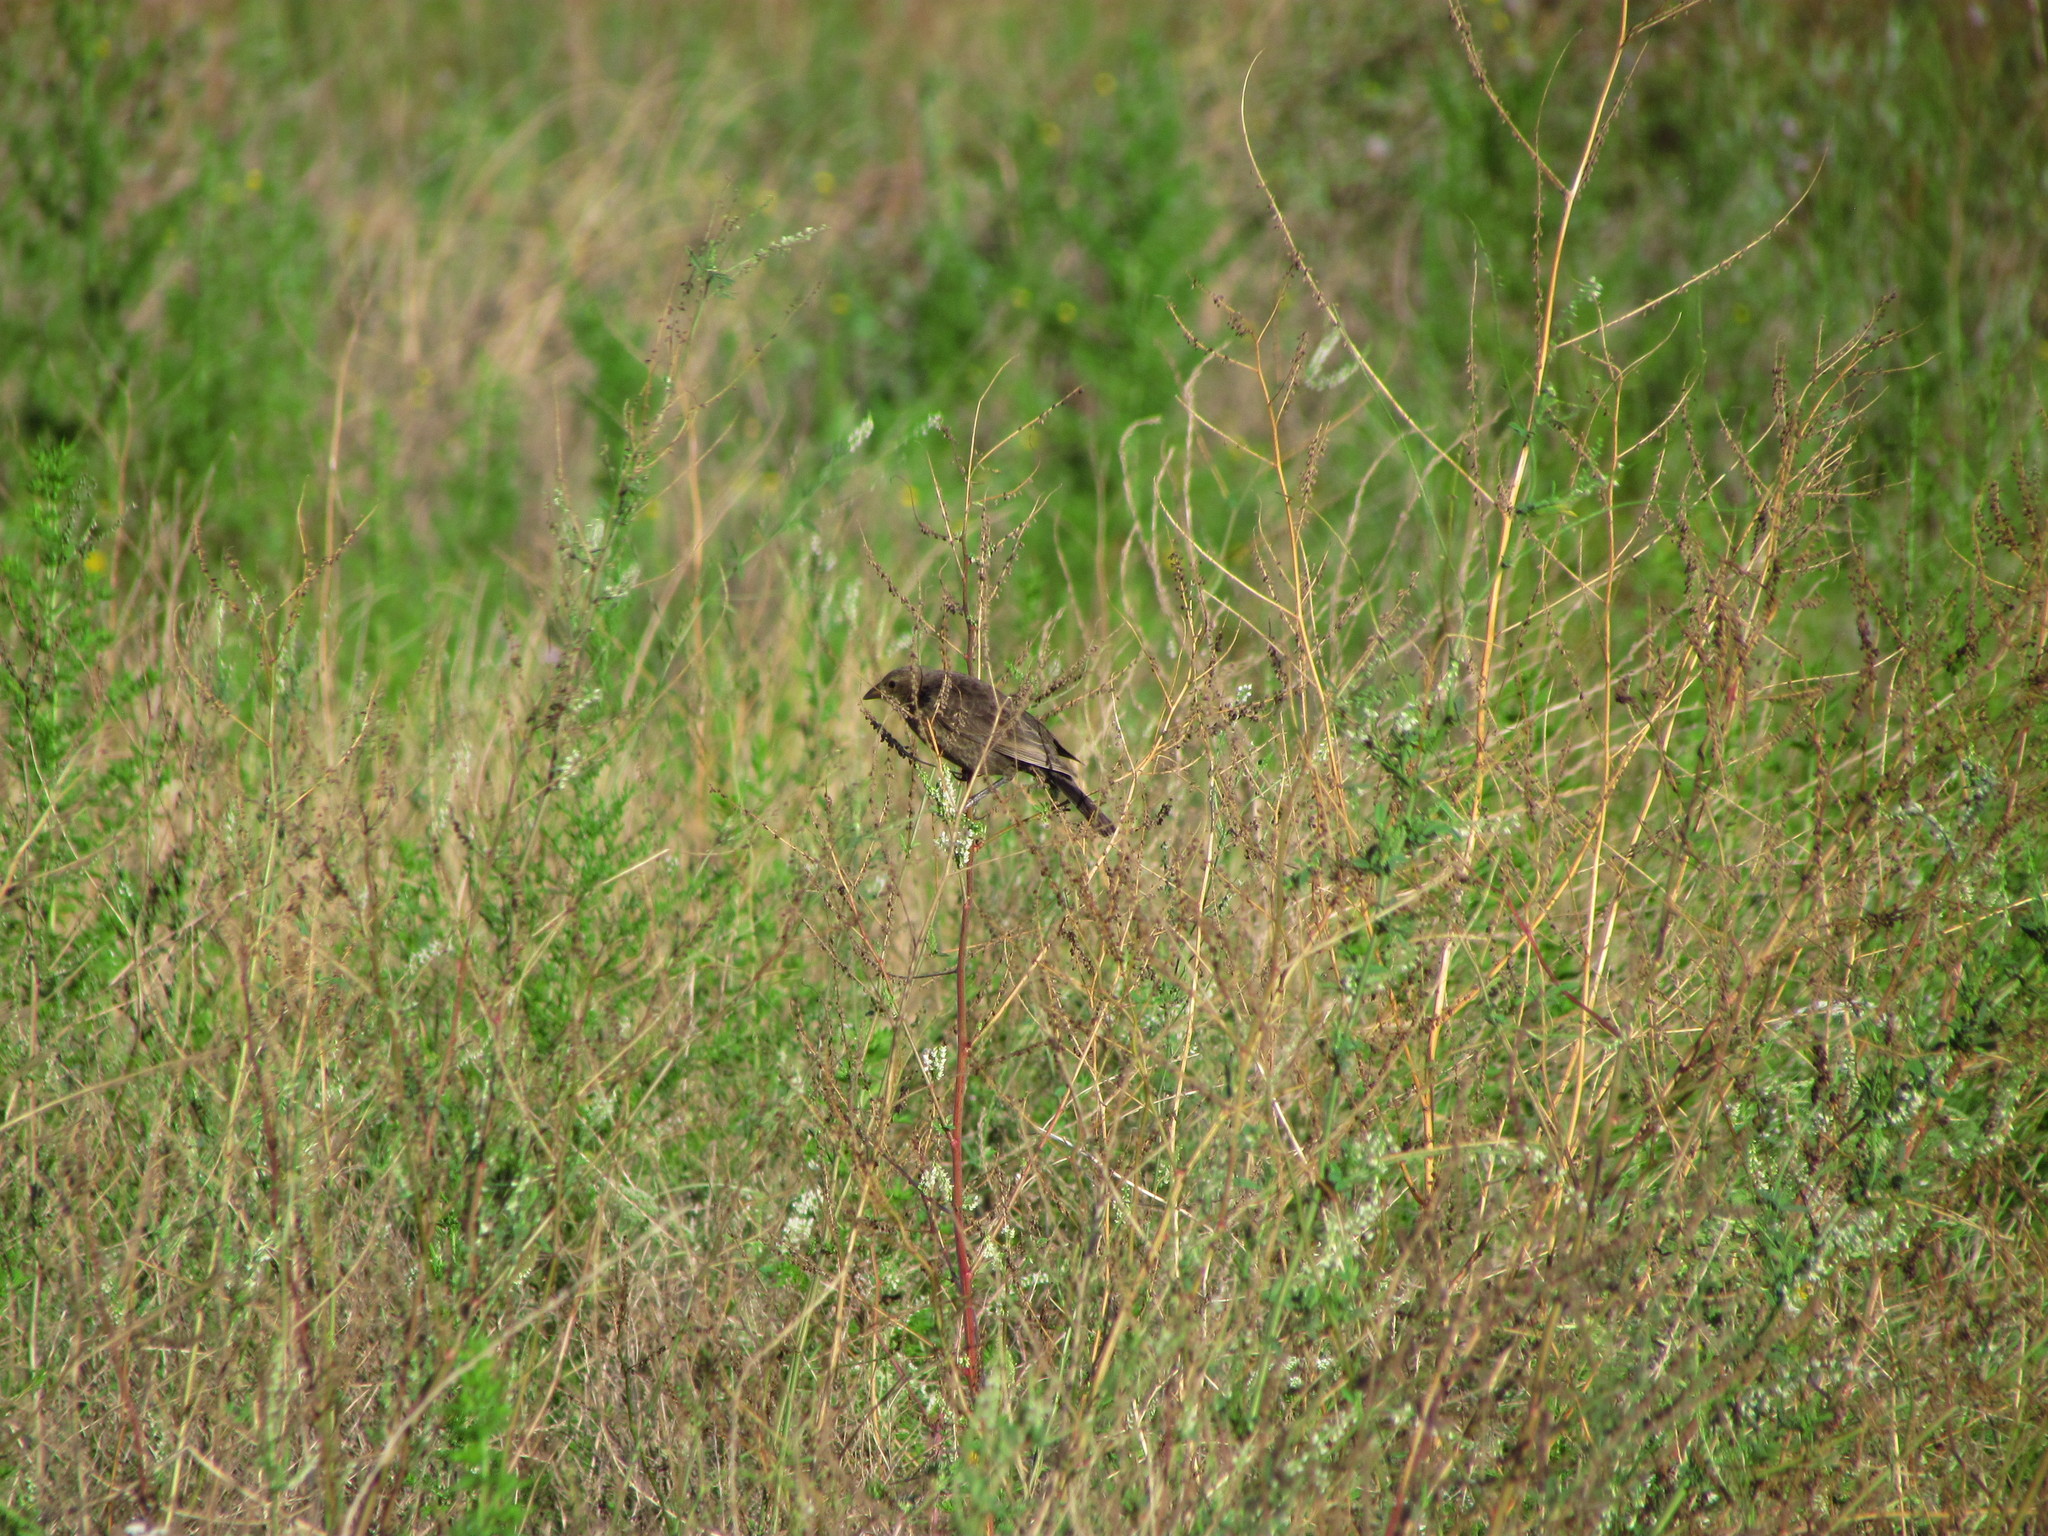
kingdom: Animalia
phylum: Chordata
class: Aves
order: Passeriformes
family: Icteridae
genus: Molothrus
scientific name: Molothrus bonariensis
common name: Shiny cowbird
